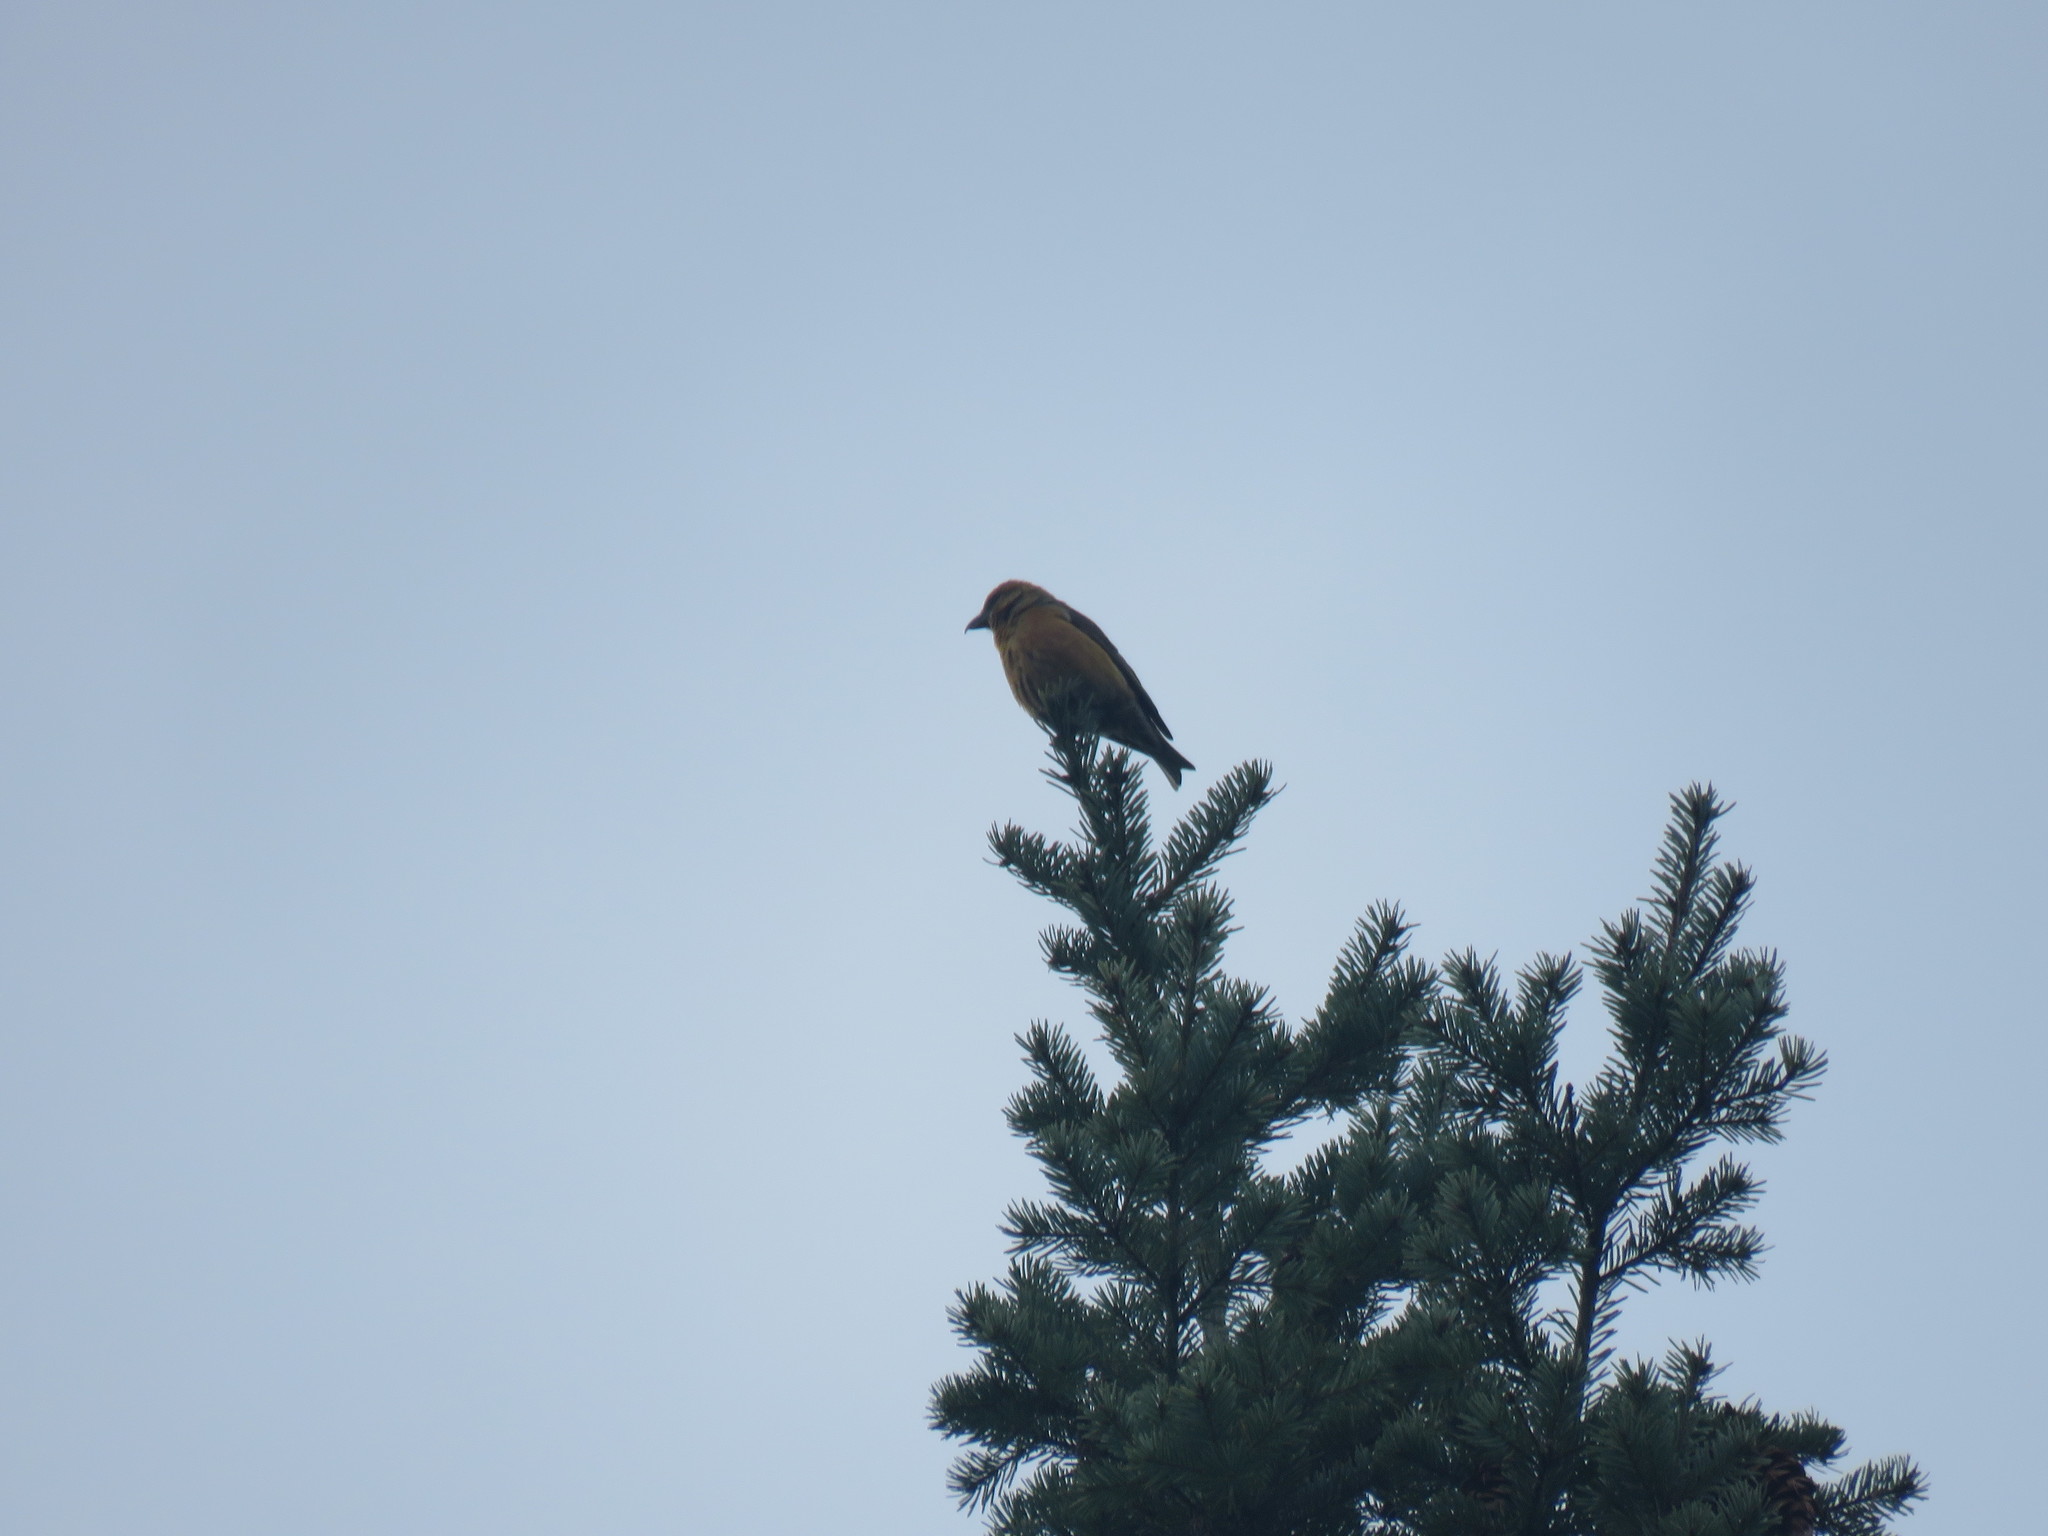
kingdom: Animalia
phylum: Chordata
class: Aves
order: Passeriformes
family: Fringillidae
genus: Loxia
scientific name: Loxia curvirostra
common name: Red crossbill
